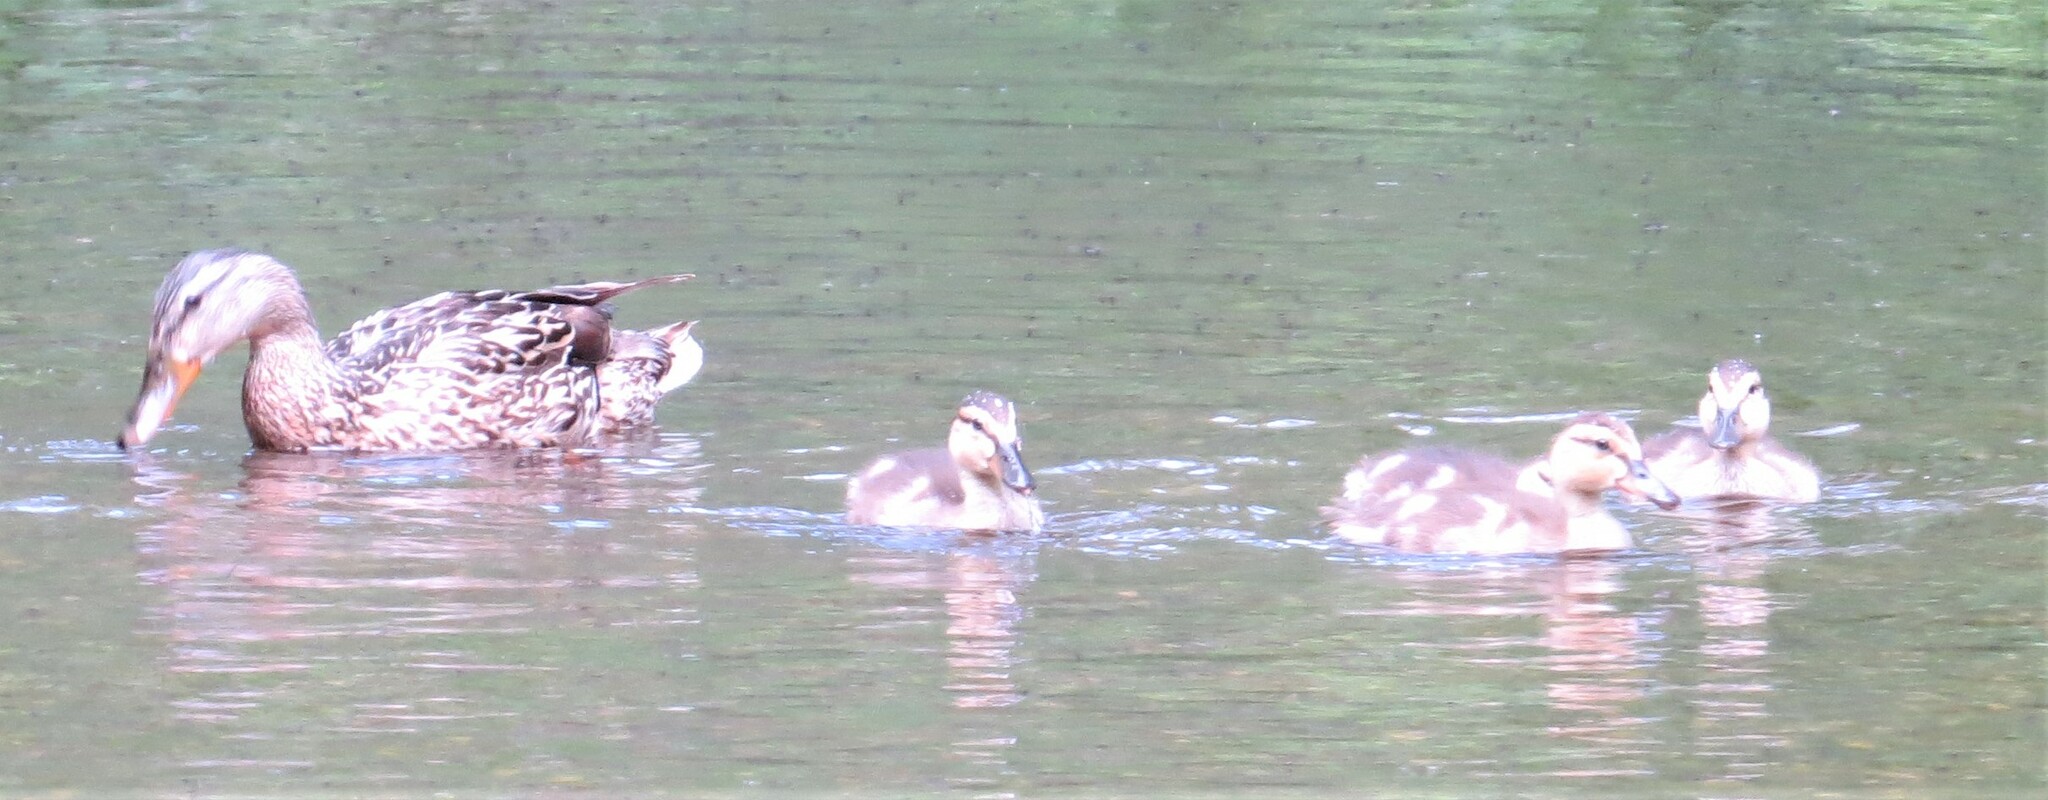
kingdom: Animalia
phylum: Chordata
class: Aves
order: Anseriformes
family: Anatidae
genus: Anas
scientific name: Anas platyrhynchos
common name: Mallard
